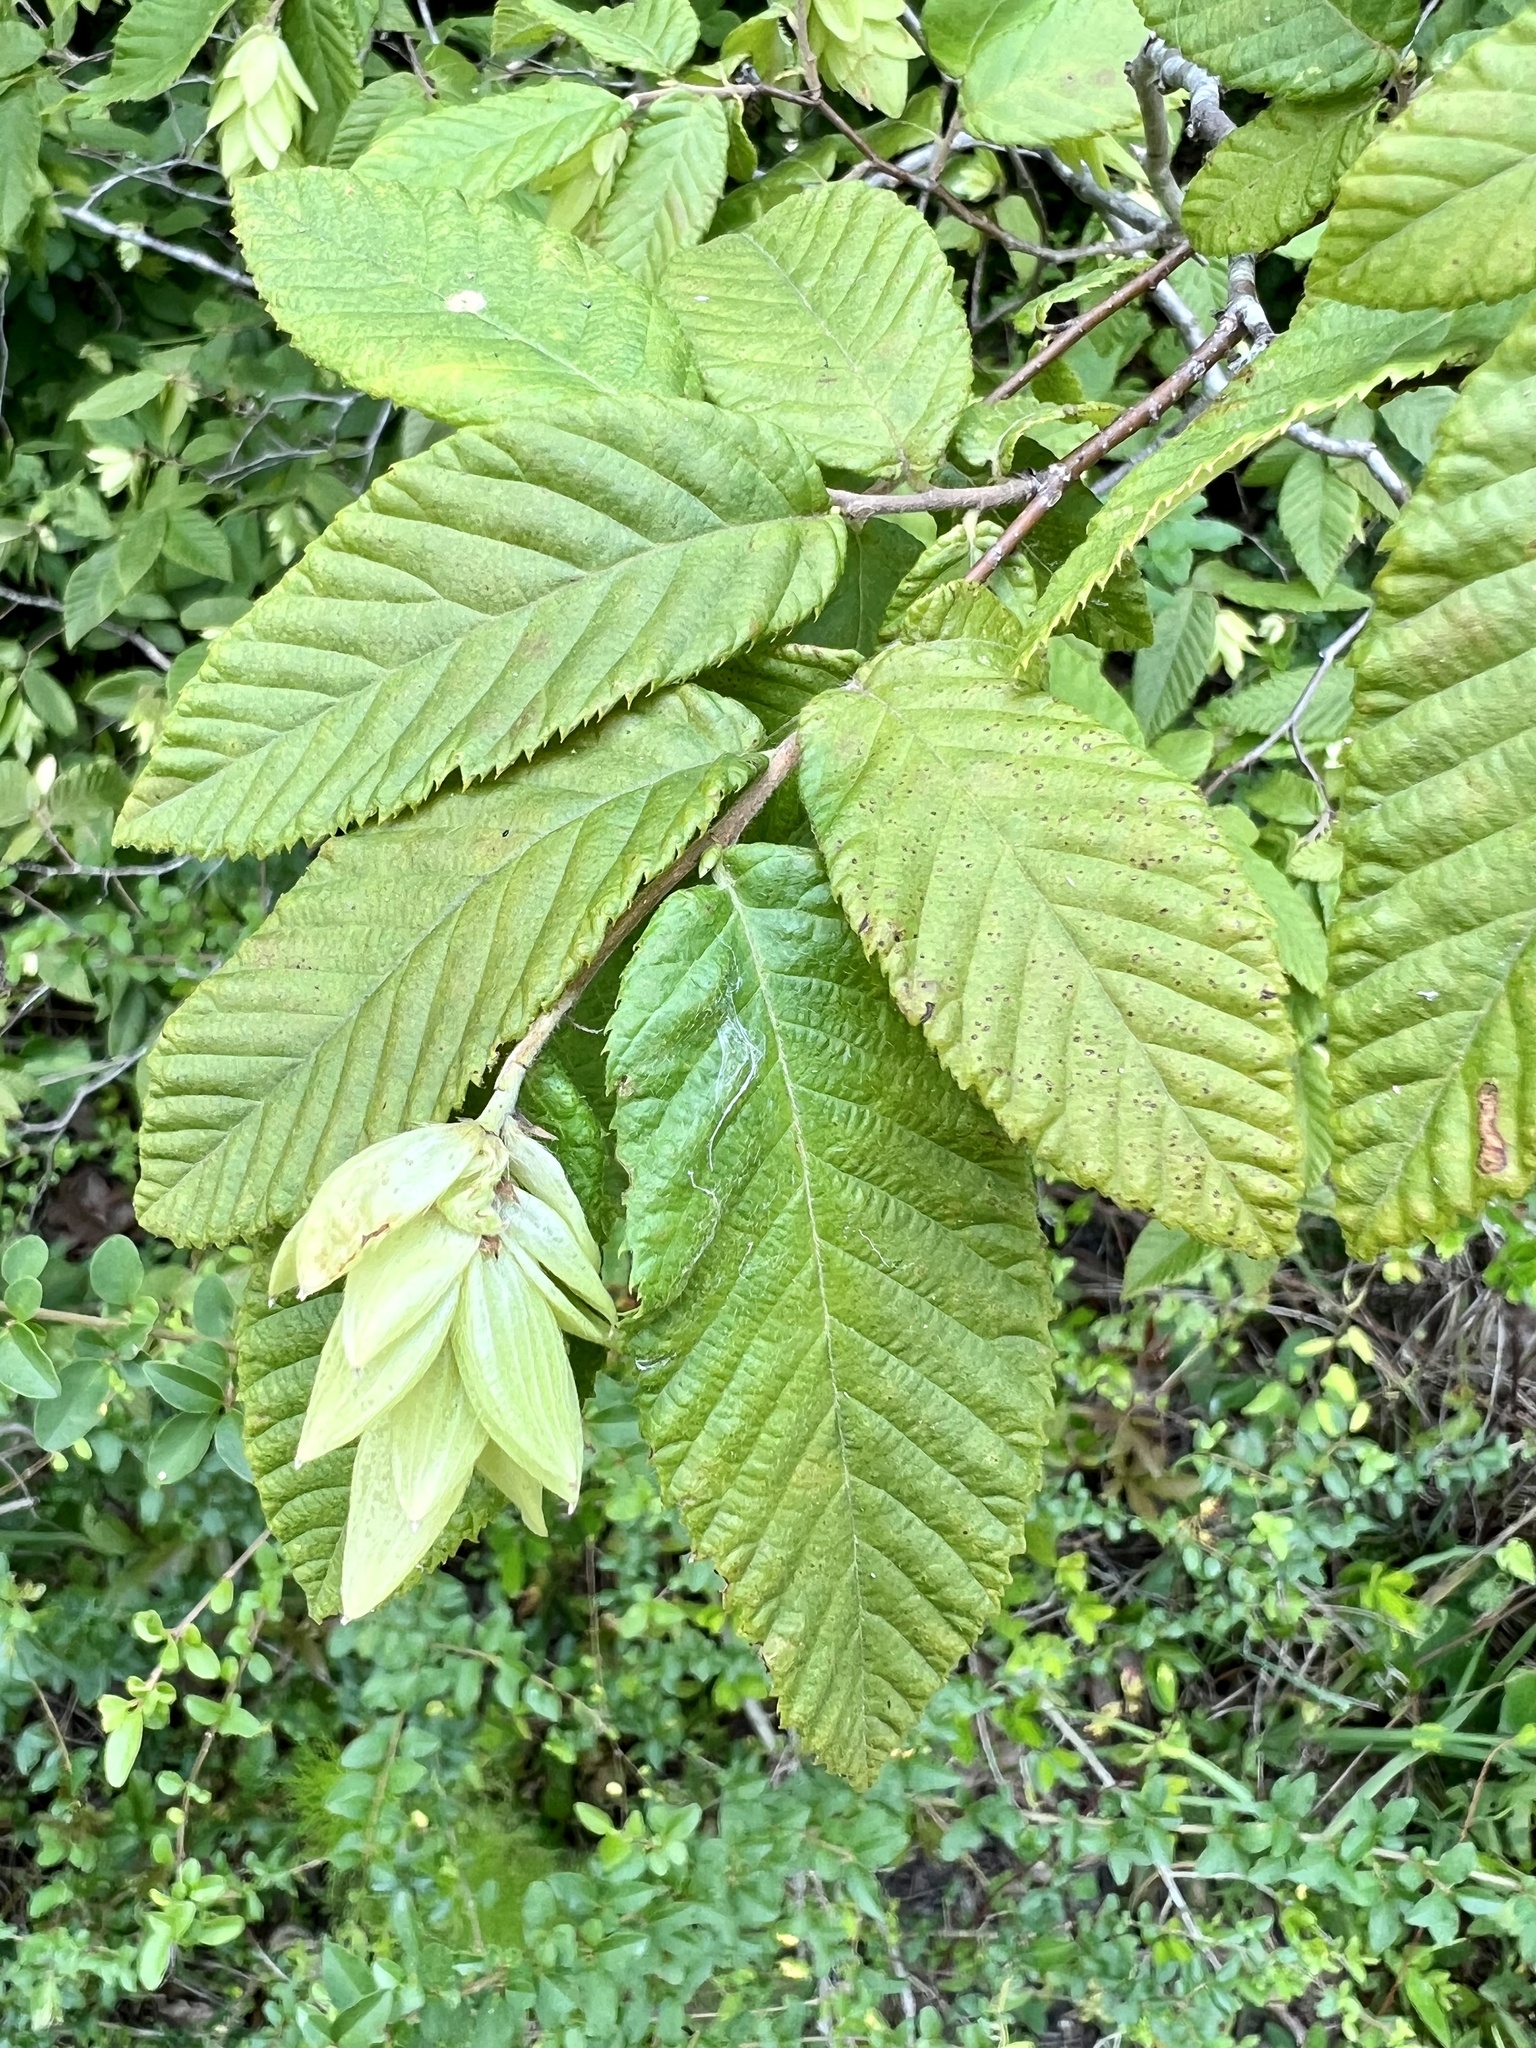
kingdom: Plantae
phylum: Tracheophyta
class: Magnoliopsida
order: Fagales
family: Betulaceae
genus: Ostrya
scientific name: Ostrya virginiana
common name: Ironwood
